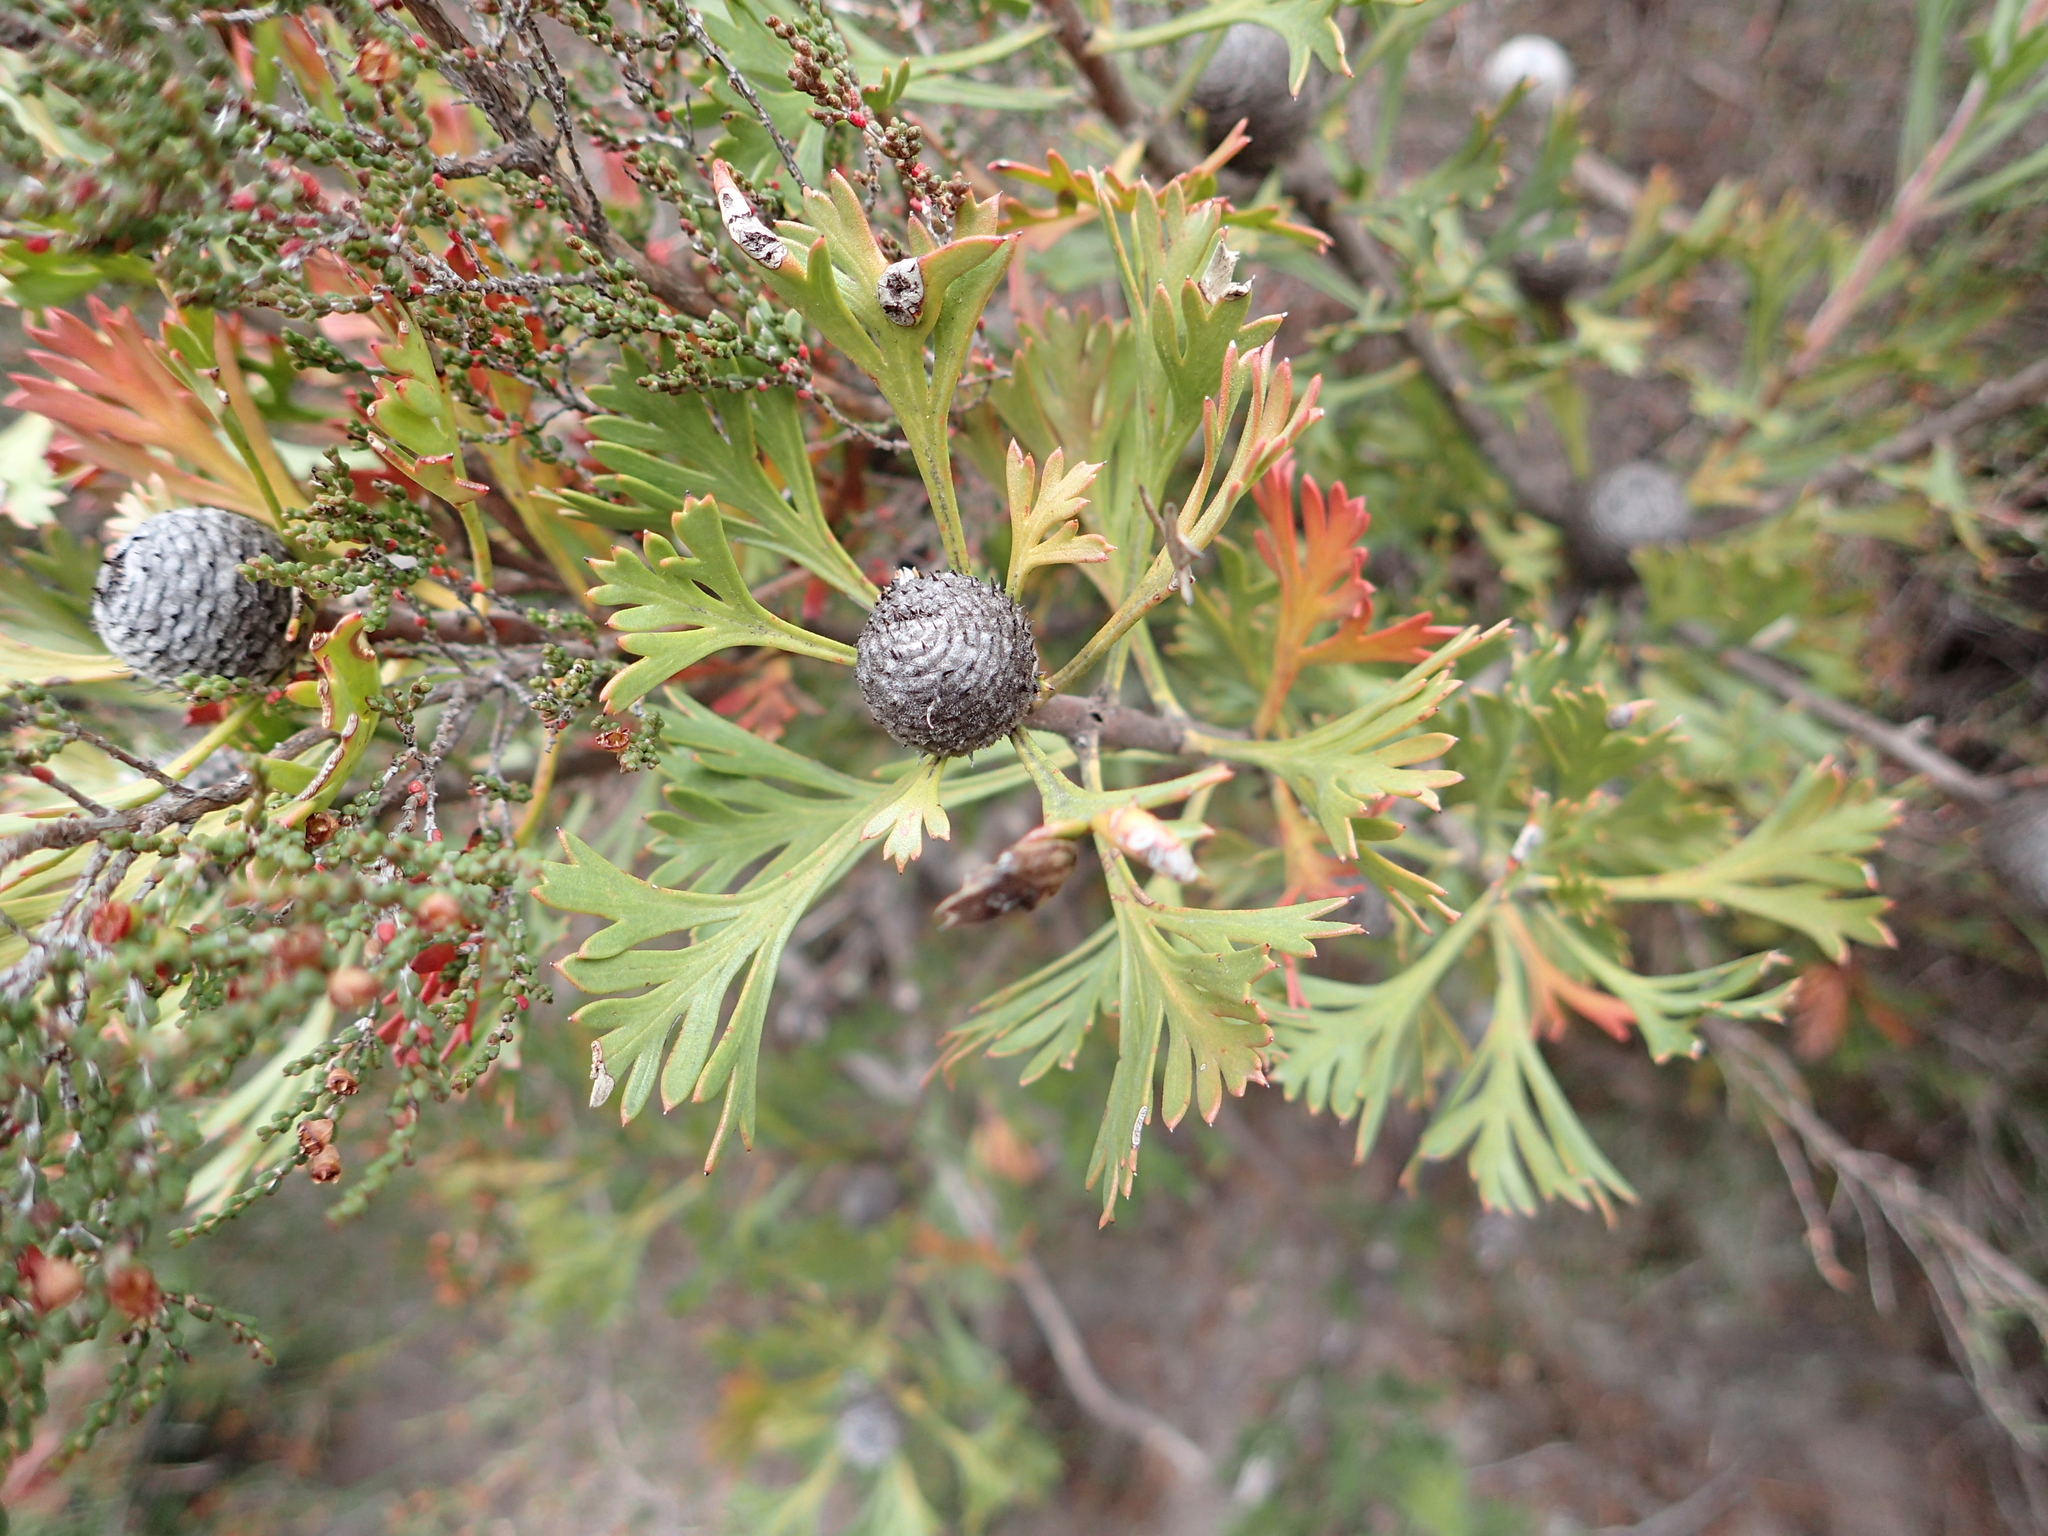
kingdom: Plantae
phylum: Tracheophyta
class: Magnoliopsida
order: Proteales
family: Proteaceae
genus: Isopogon
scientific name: Isopogon anemonifolius
